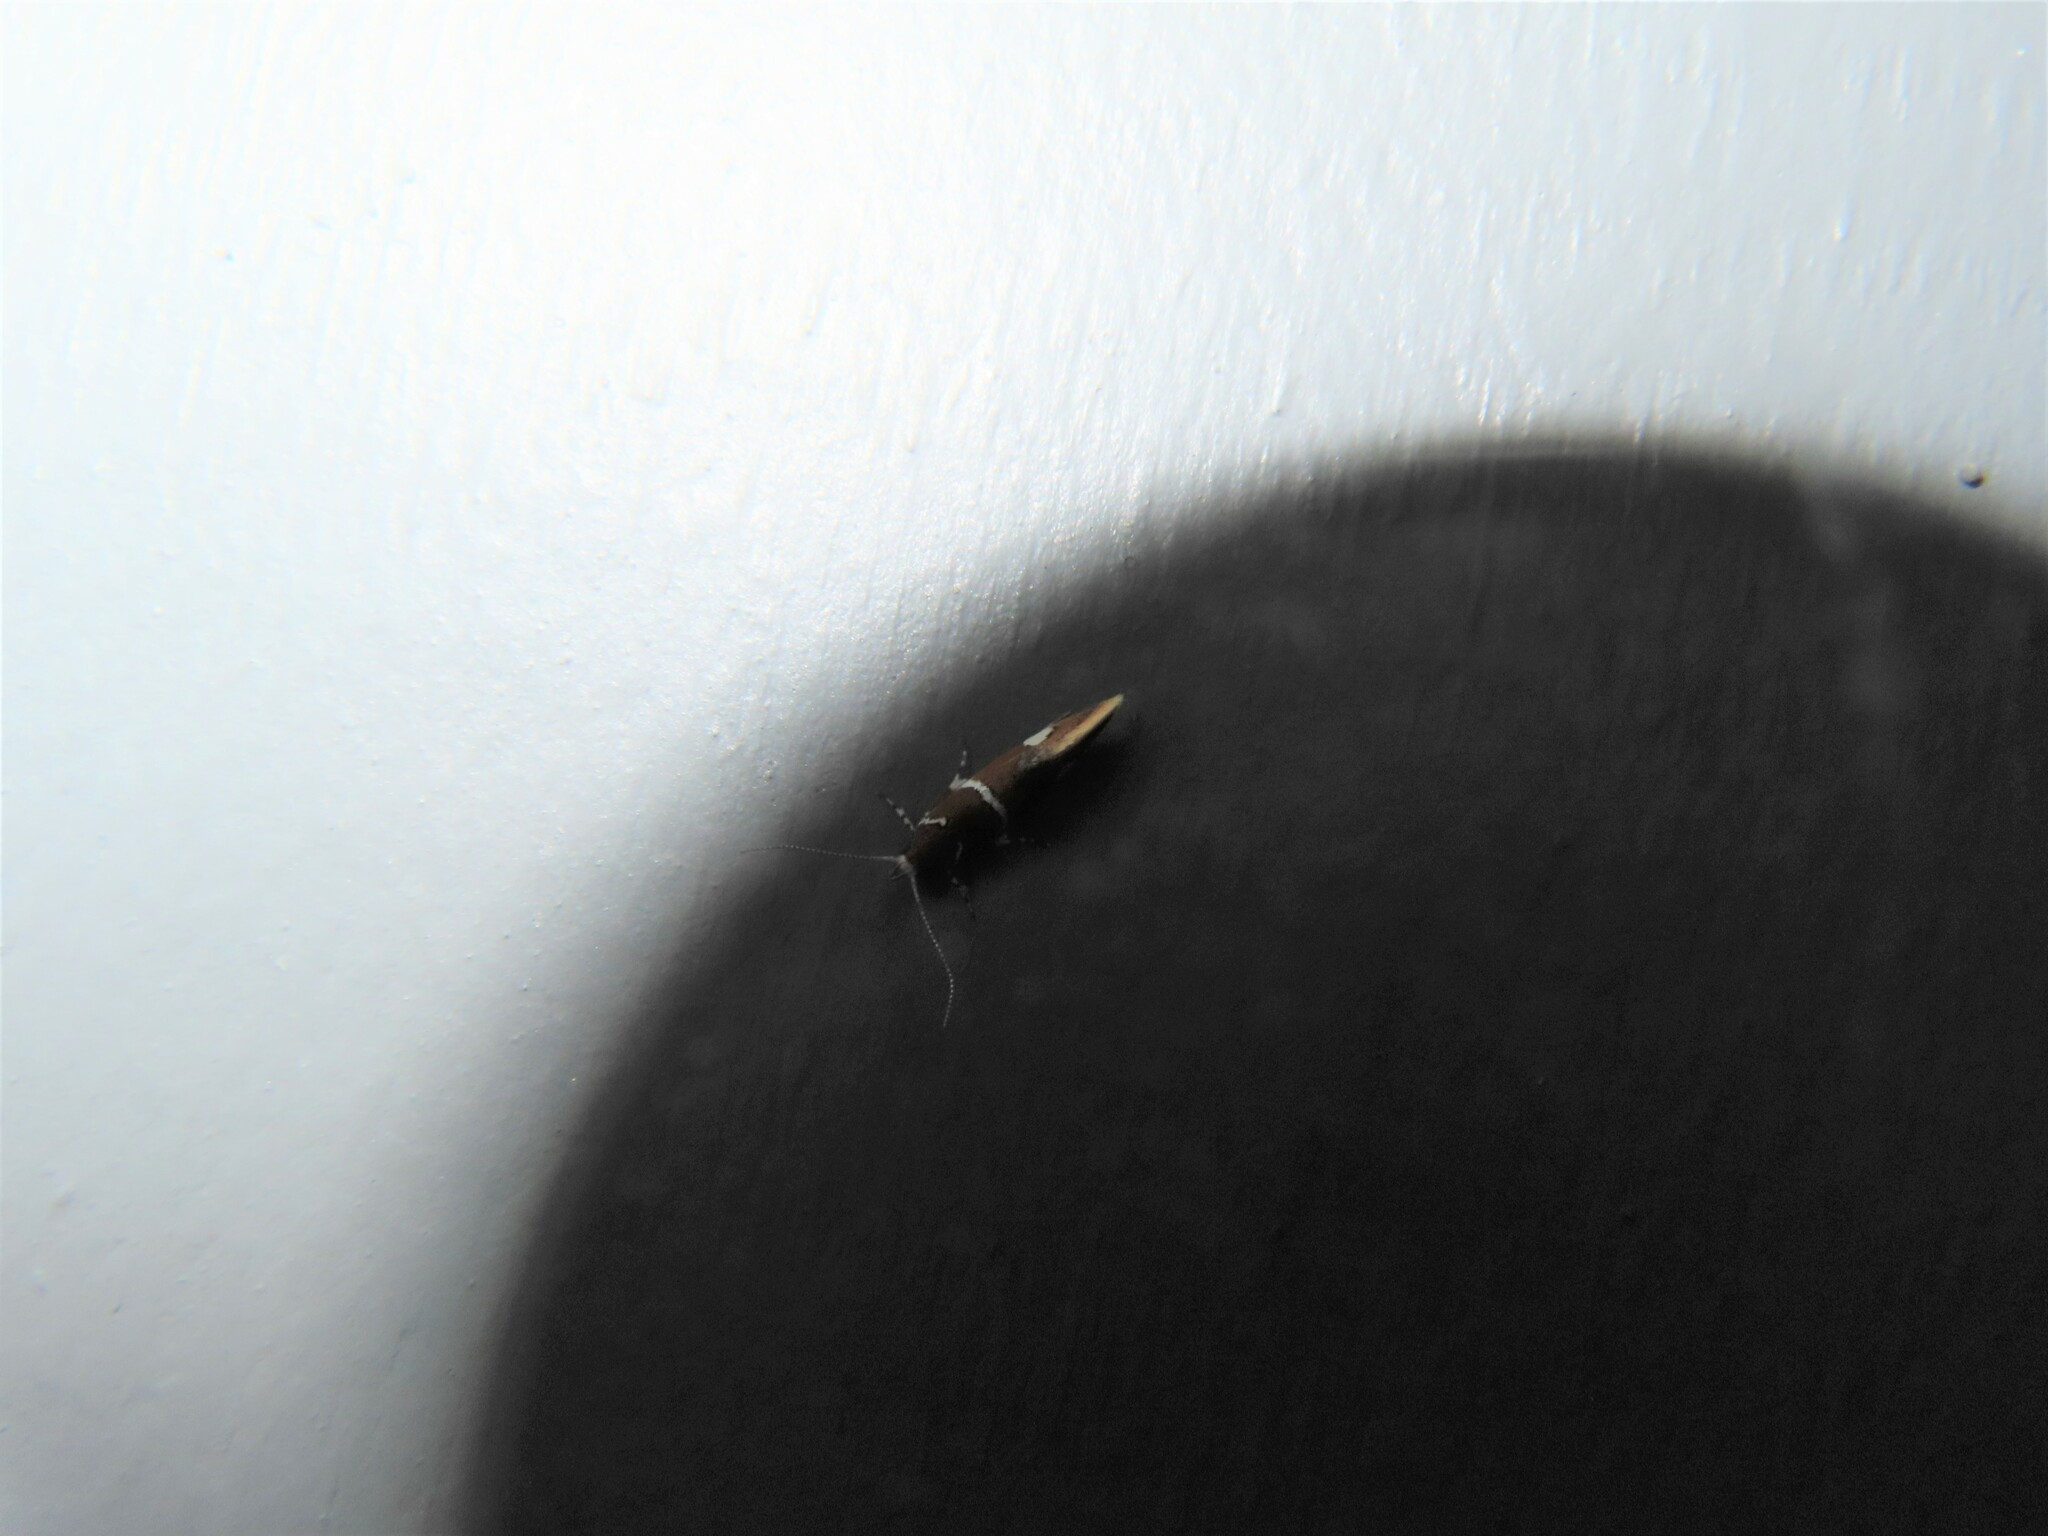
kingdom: Animalia
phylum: Arthropoda
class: Insecta
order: Lepidoptera
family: Oecophoridae
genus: Promalactis
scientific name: Promalactis suzukiella
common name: Moth
